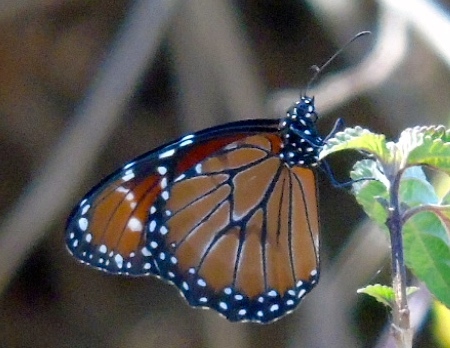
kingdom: Animalia
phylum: Arthropoda
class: Insecta
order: Lepidoptera
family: Nymphalidae
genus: Danaus
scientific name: Danaus eresimus
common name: Soldier
